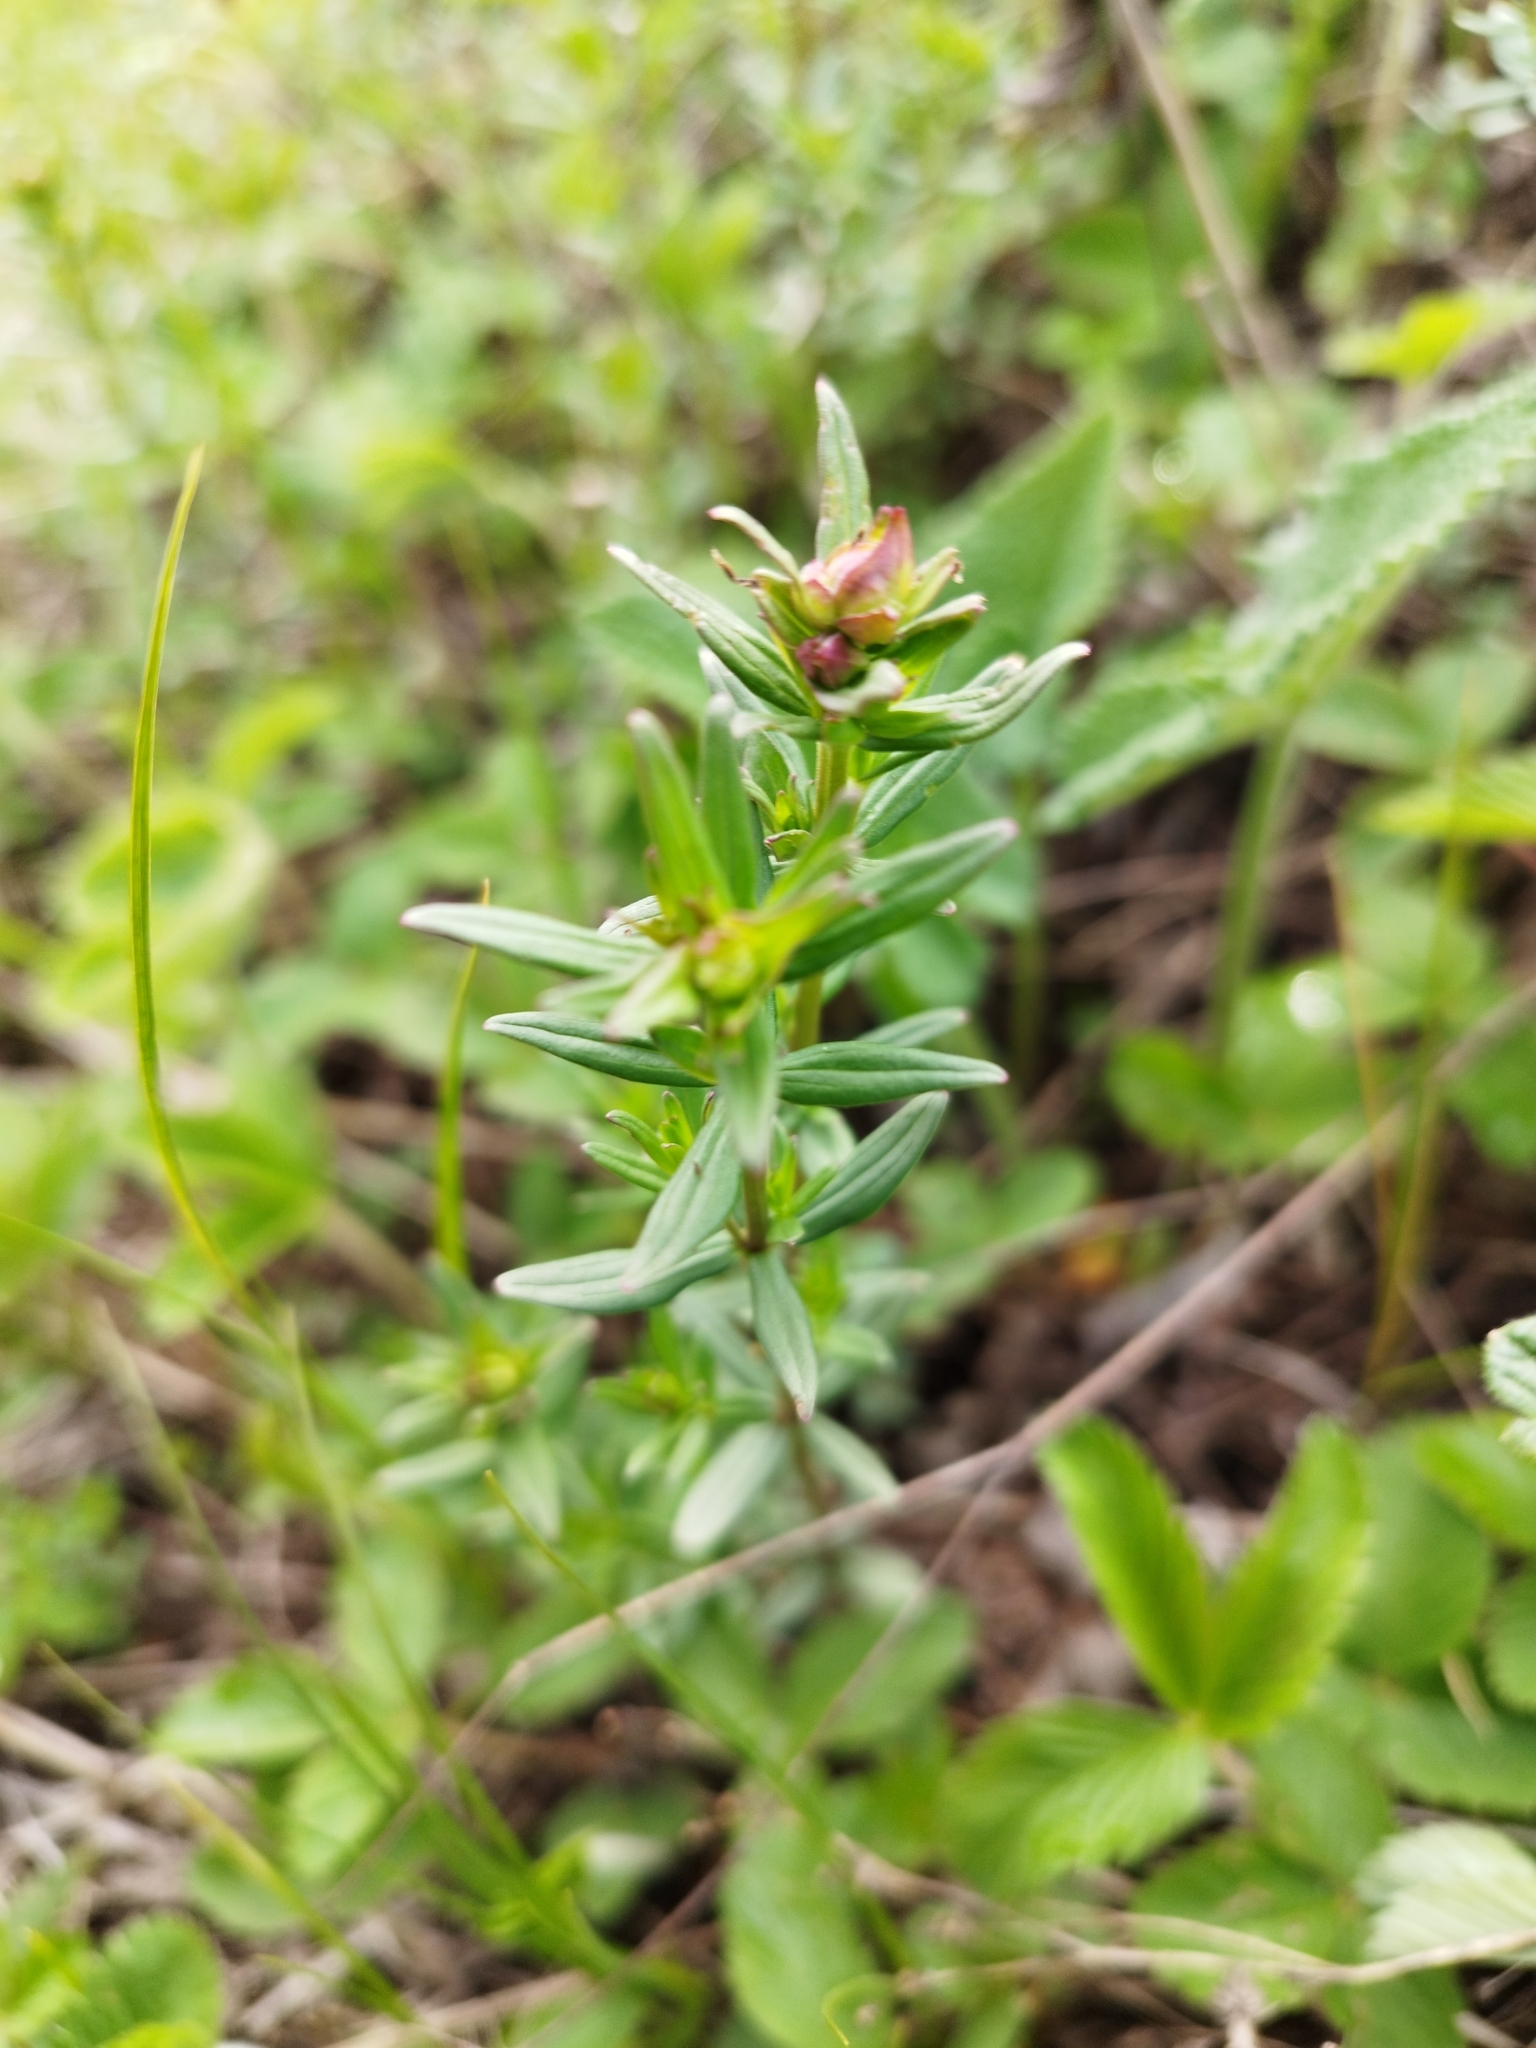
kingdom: Plantae
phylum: Tracheophyta
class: Magnoliopsida
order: Gentianales
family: Rubiaceae
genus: Galium
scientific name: Galium boreale
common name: Northern bedstraw
